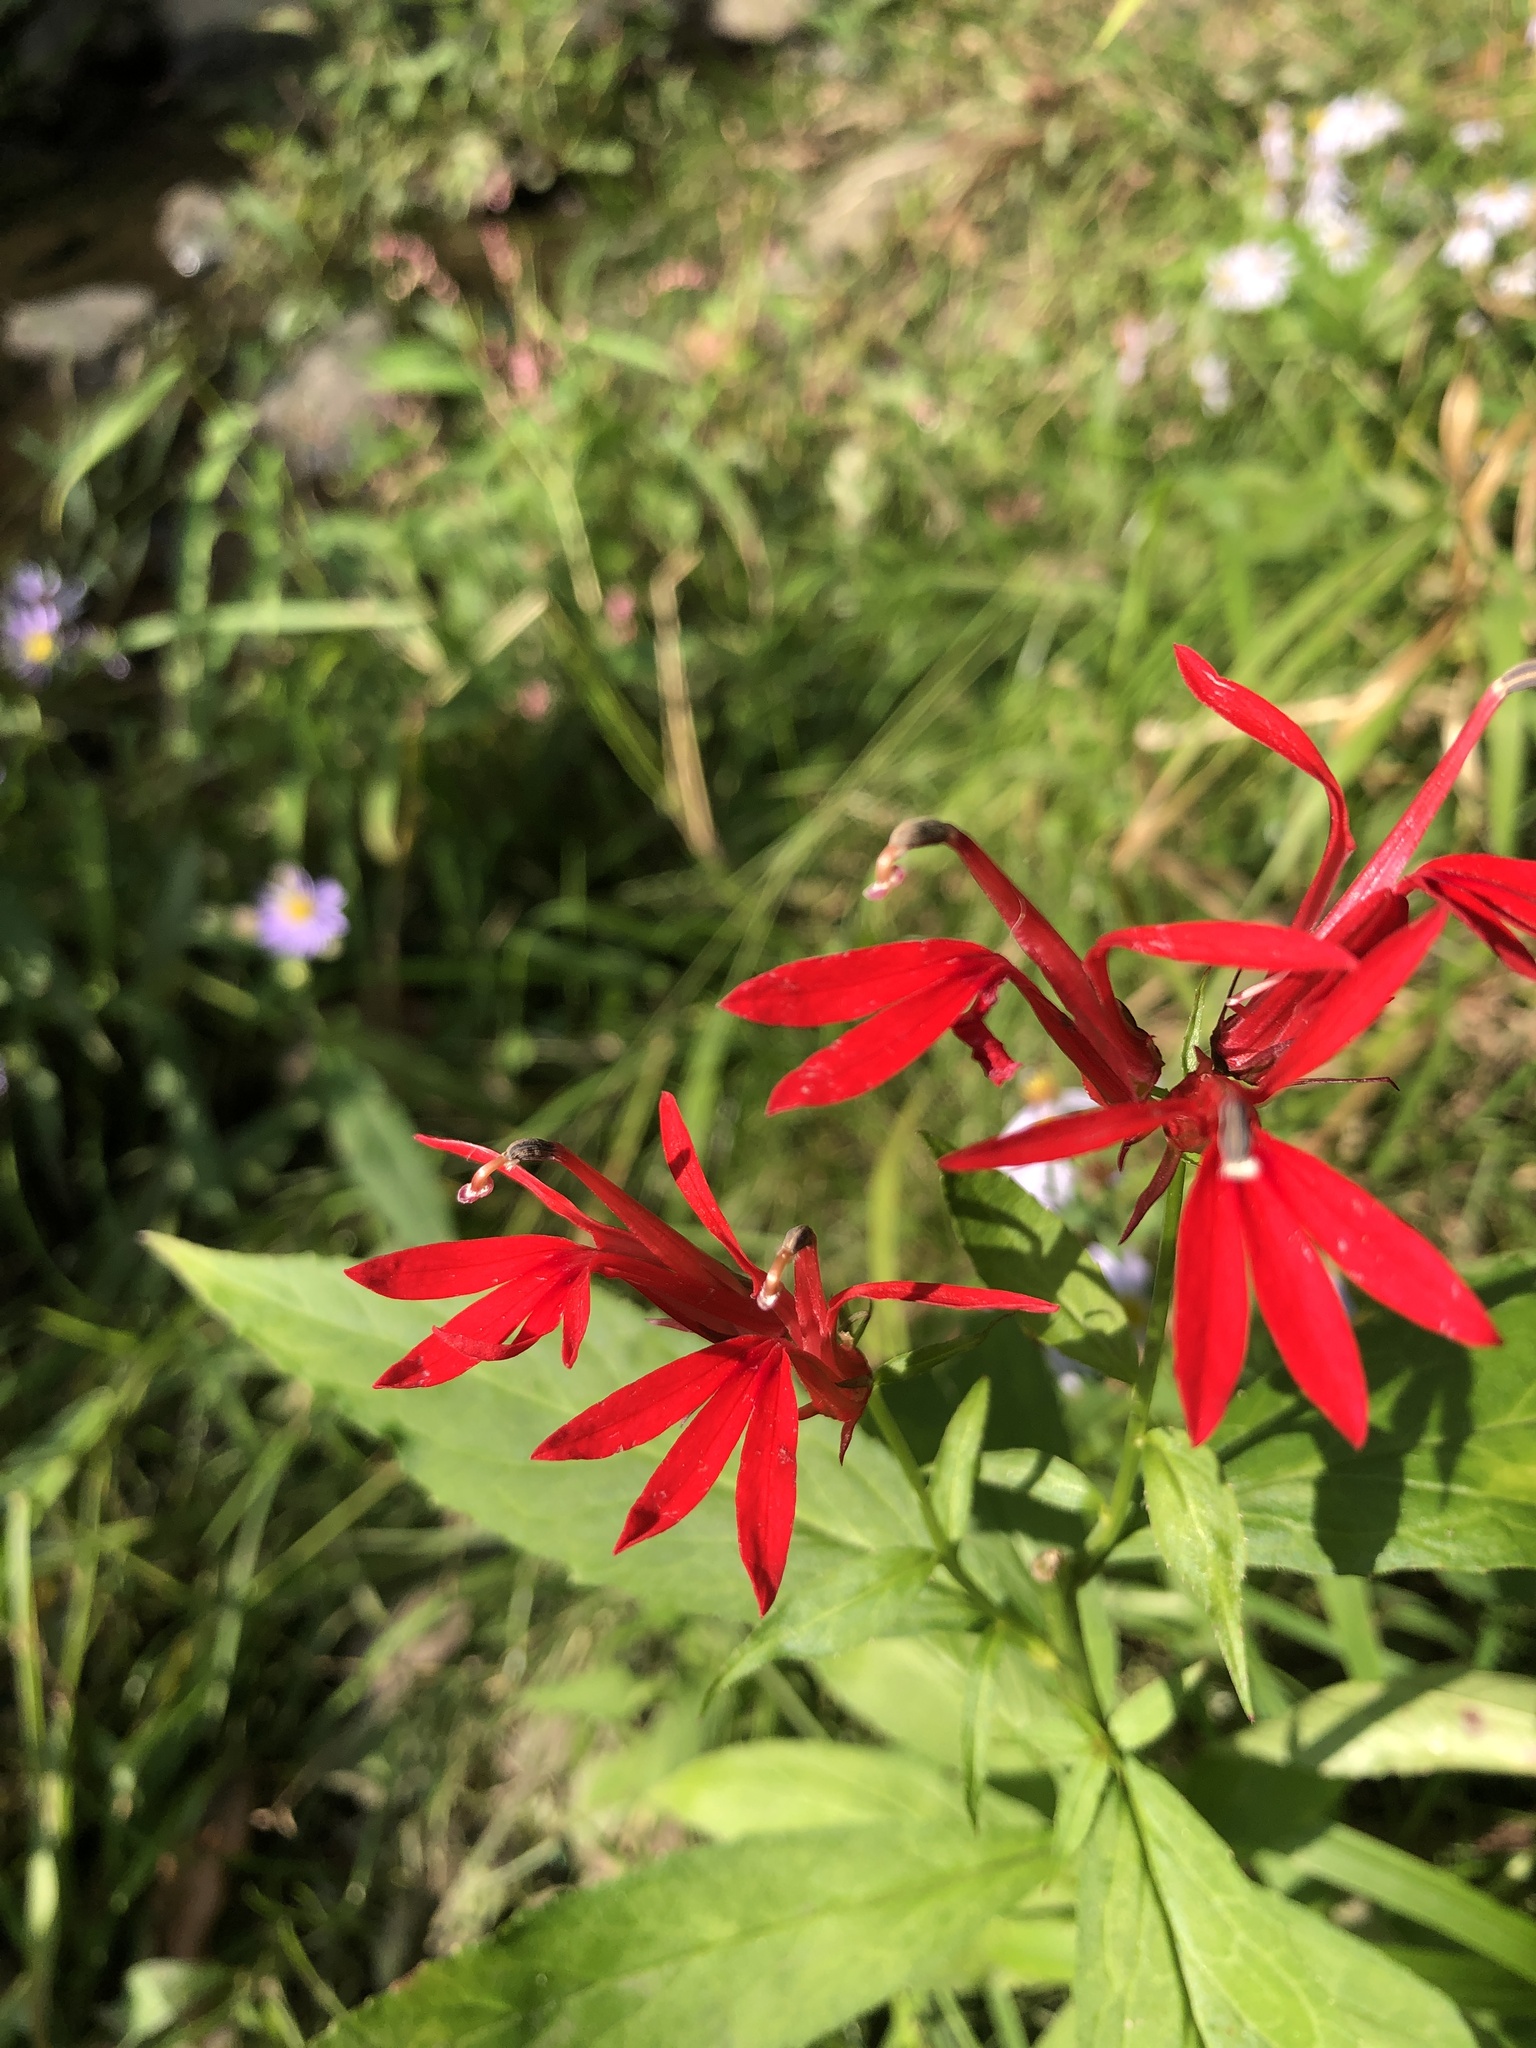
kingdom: Plantae
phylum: Tracheophyta
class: Magnoliopsida
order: Asterales
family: Campanulaceae
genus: Lobelia
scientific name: Lobelia cardinalis
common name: Cardinal flower
